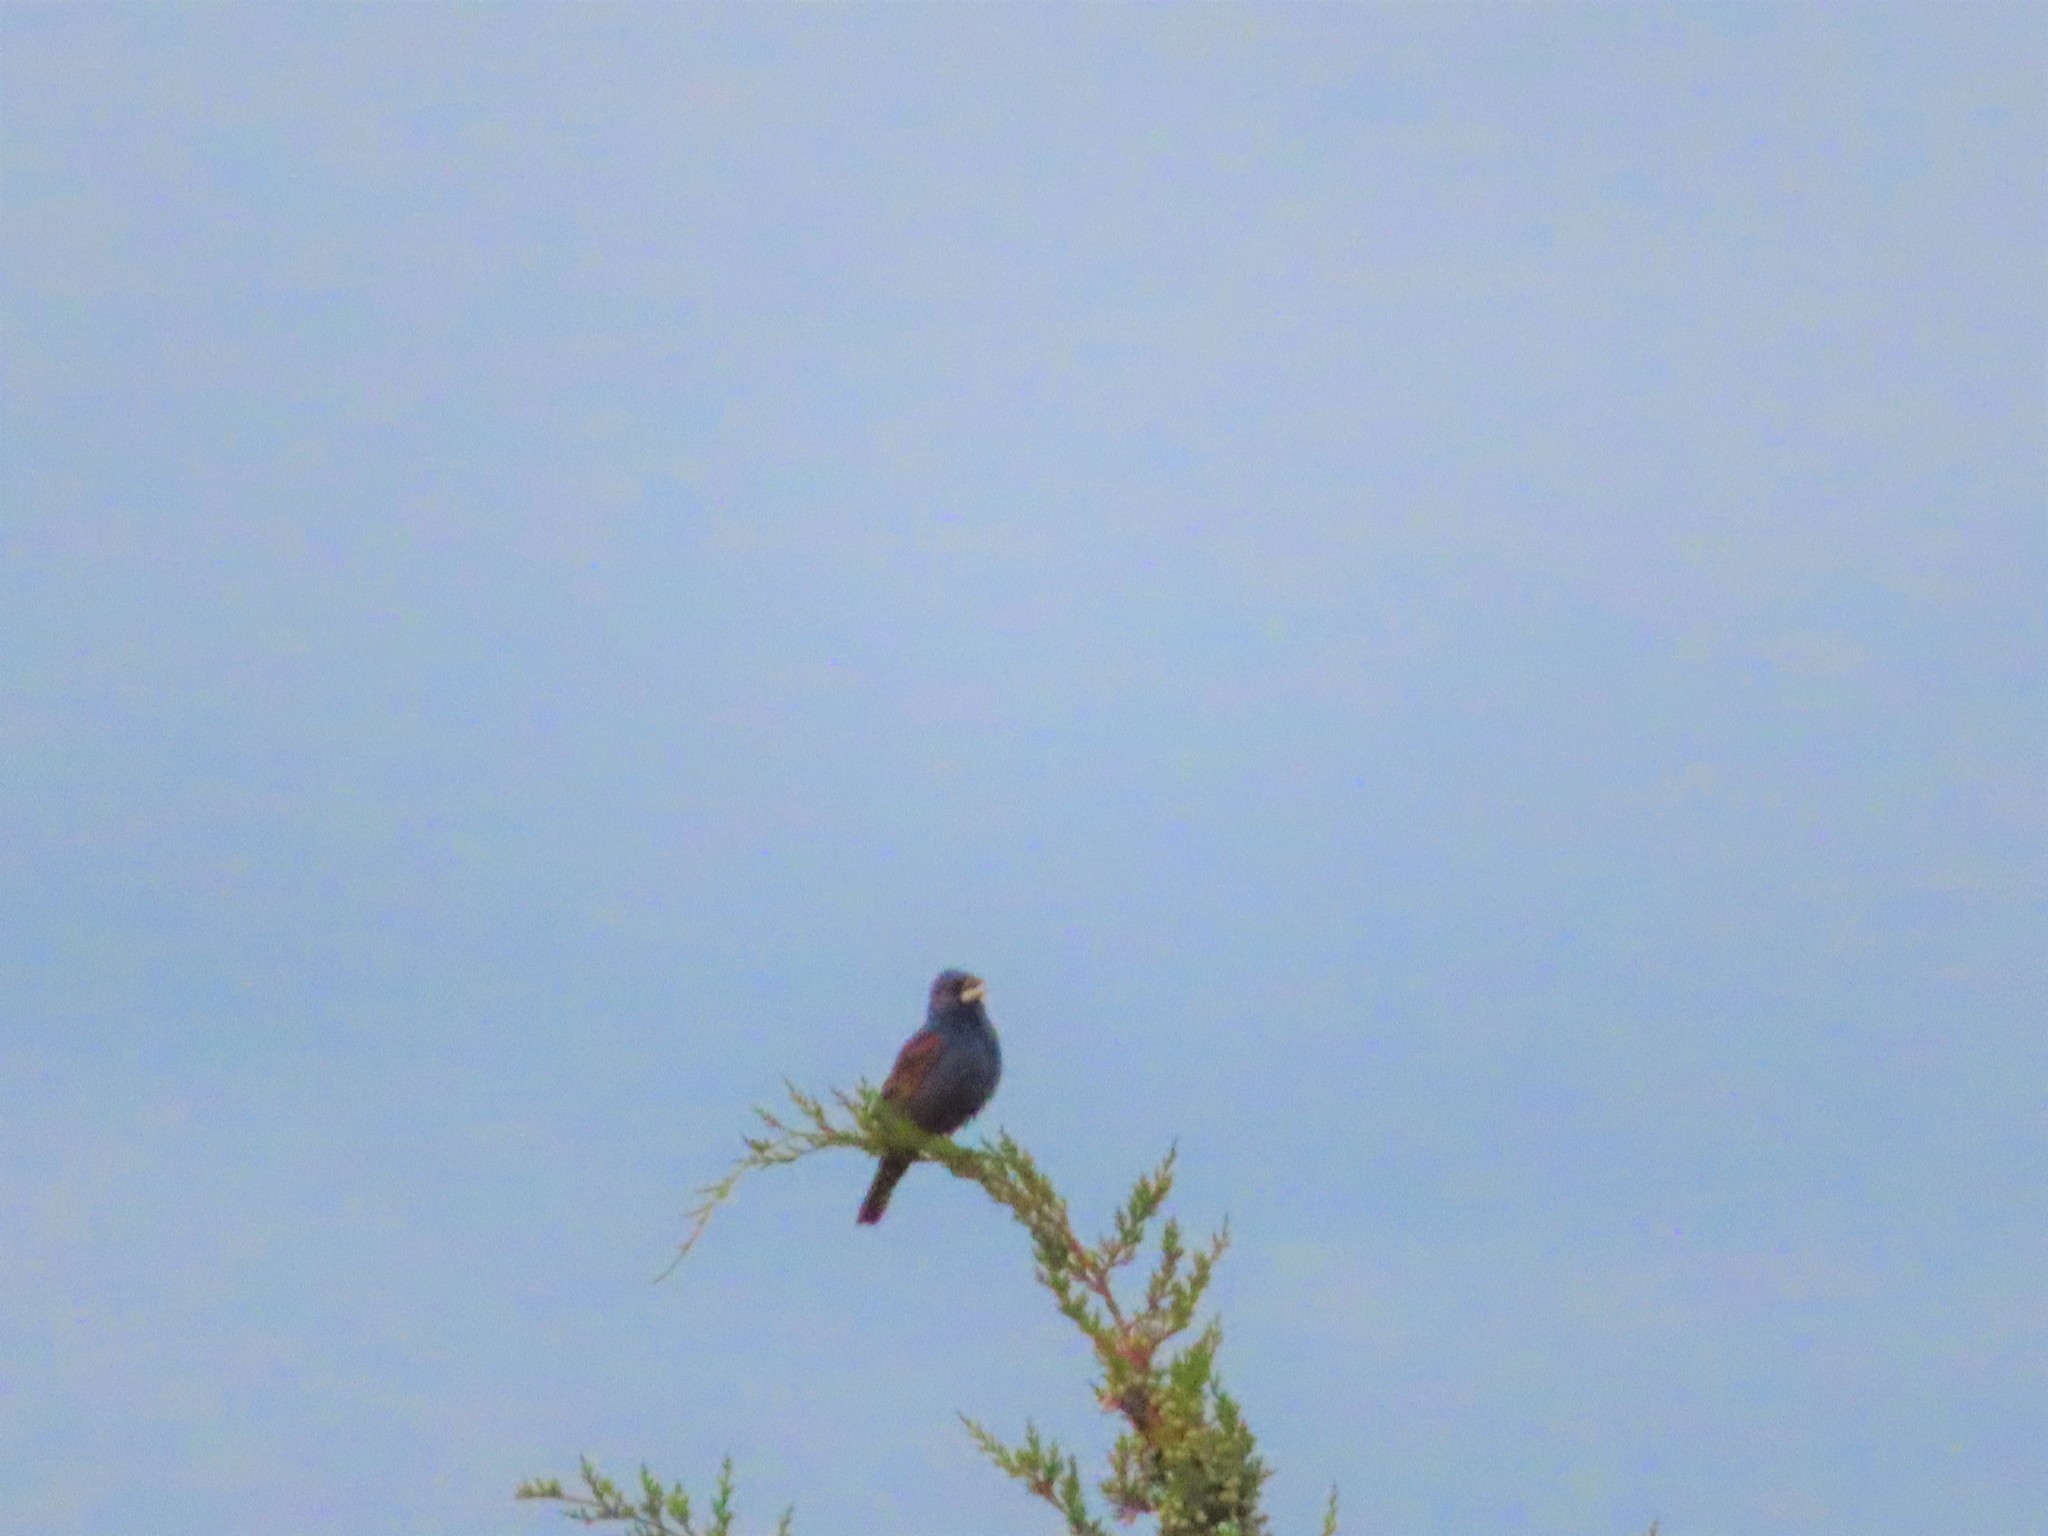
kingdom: Animalia
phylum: Chordata
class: Aves
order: Passeriformes
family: Cardinalidae
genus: Passerina
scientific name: Passerina caerulea
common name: Blue grosbeak
